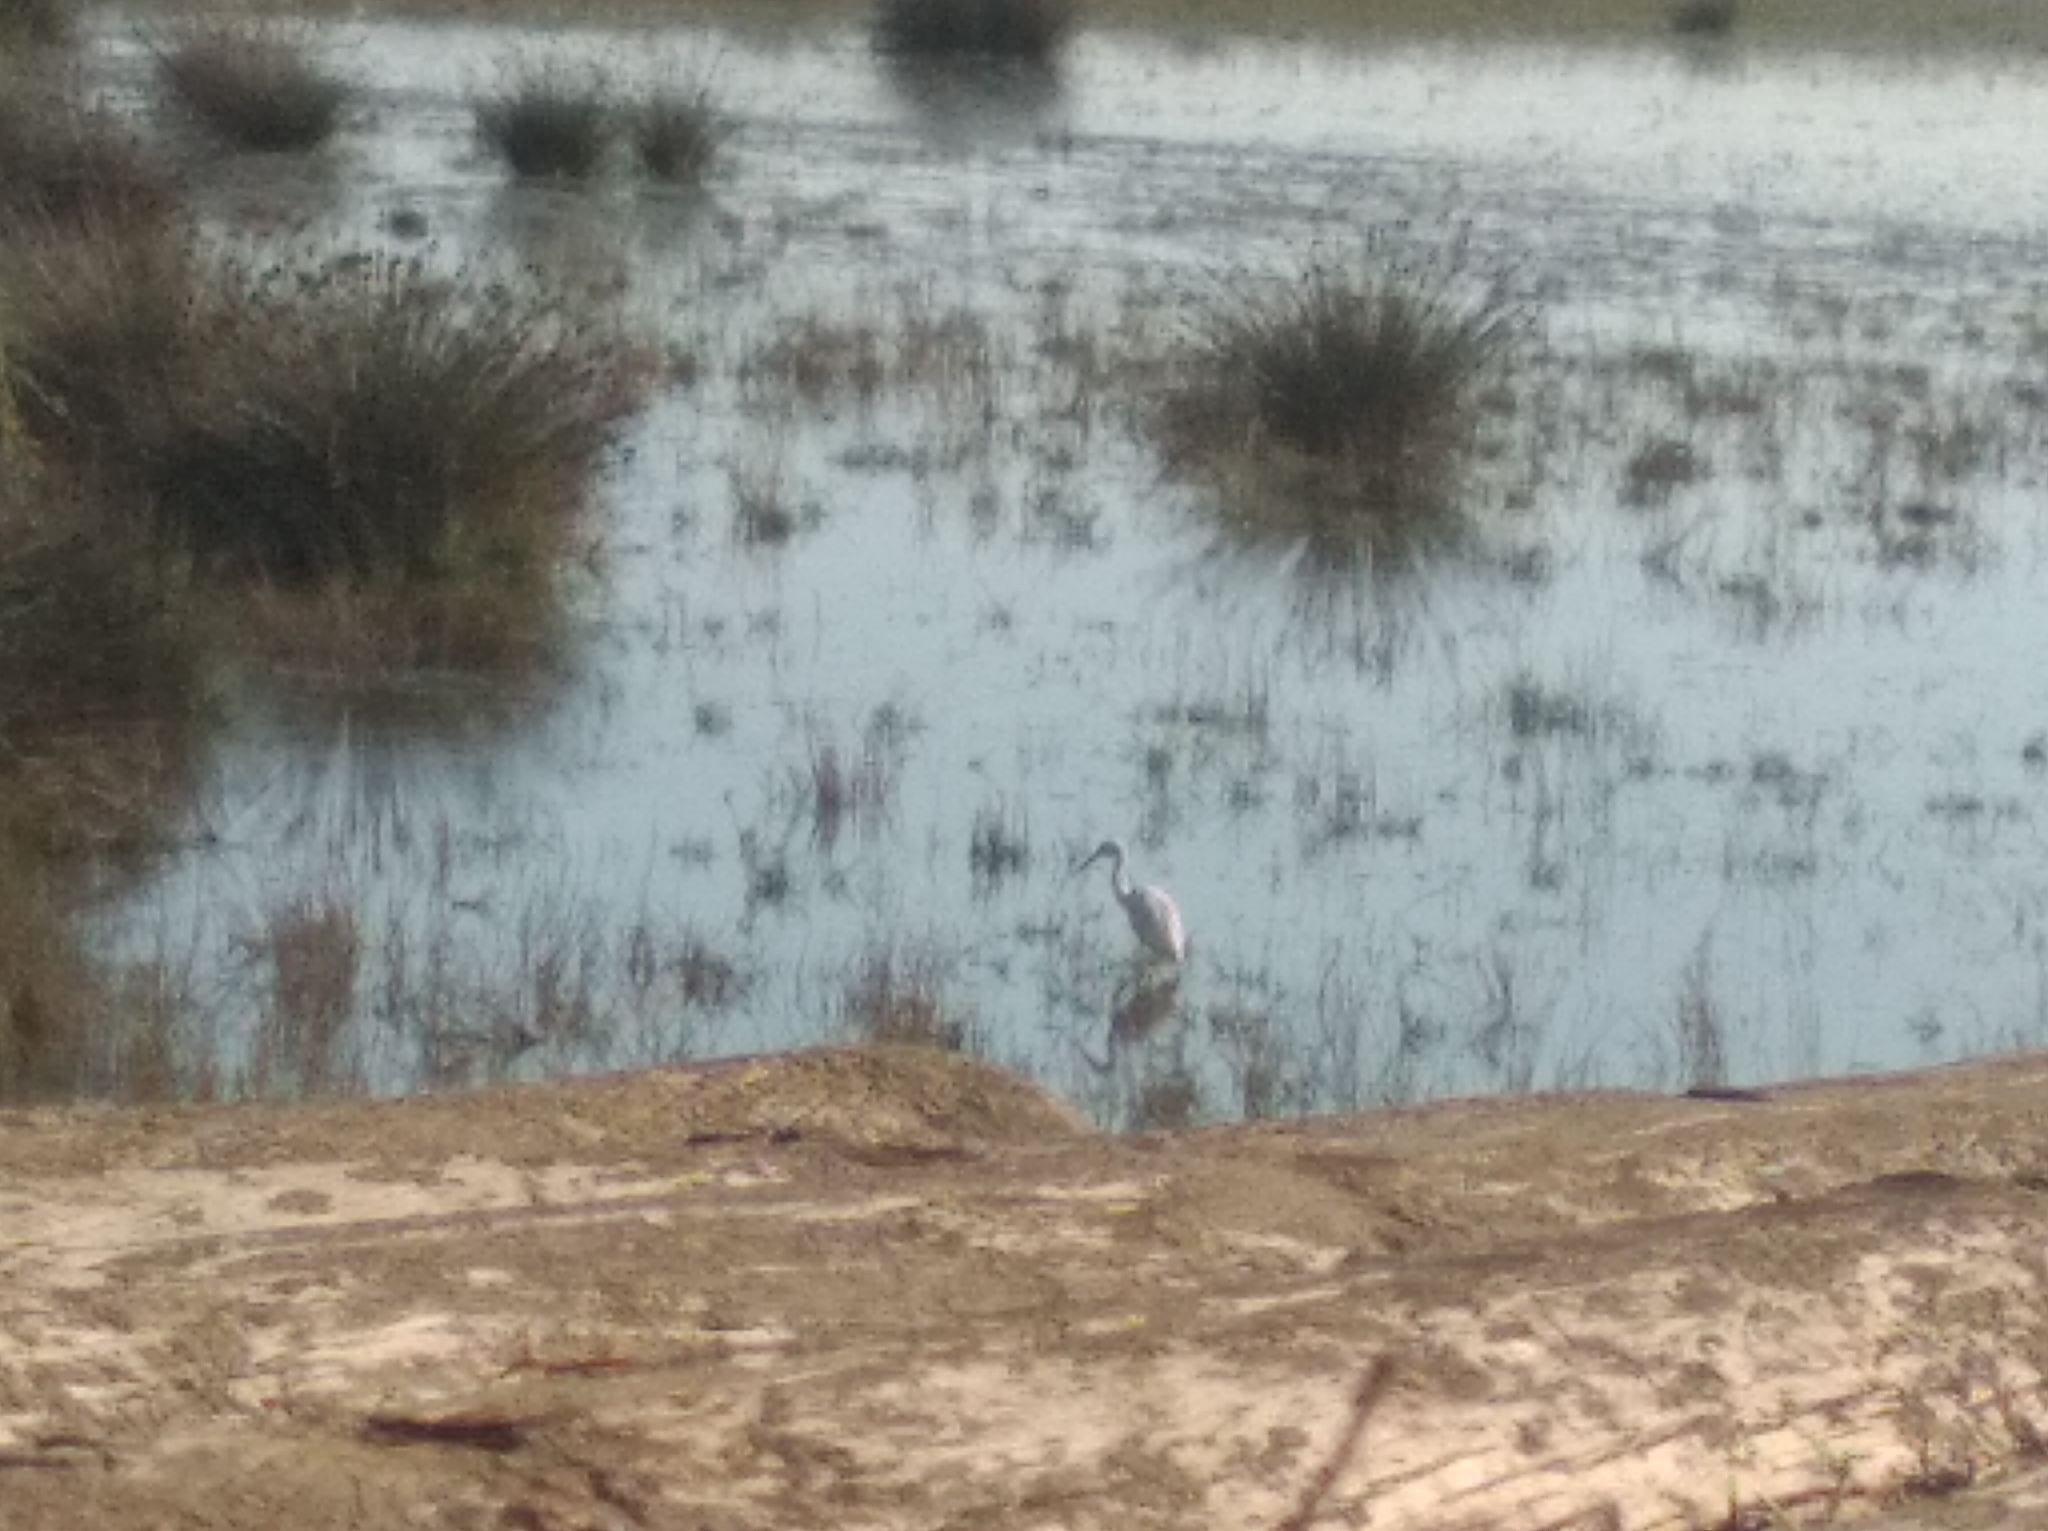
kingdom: Animalia
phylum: Chordata
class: Aves
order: Pelecaniformes
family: Ardeidae
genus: Egretta
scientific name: Egretta garzetta
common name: Little egret
